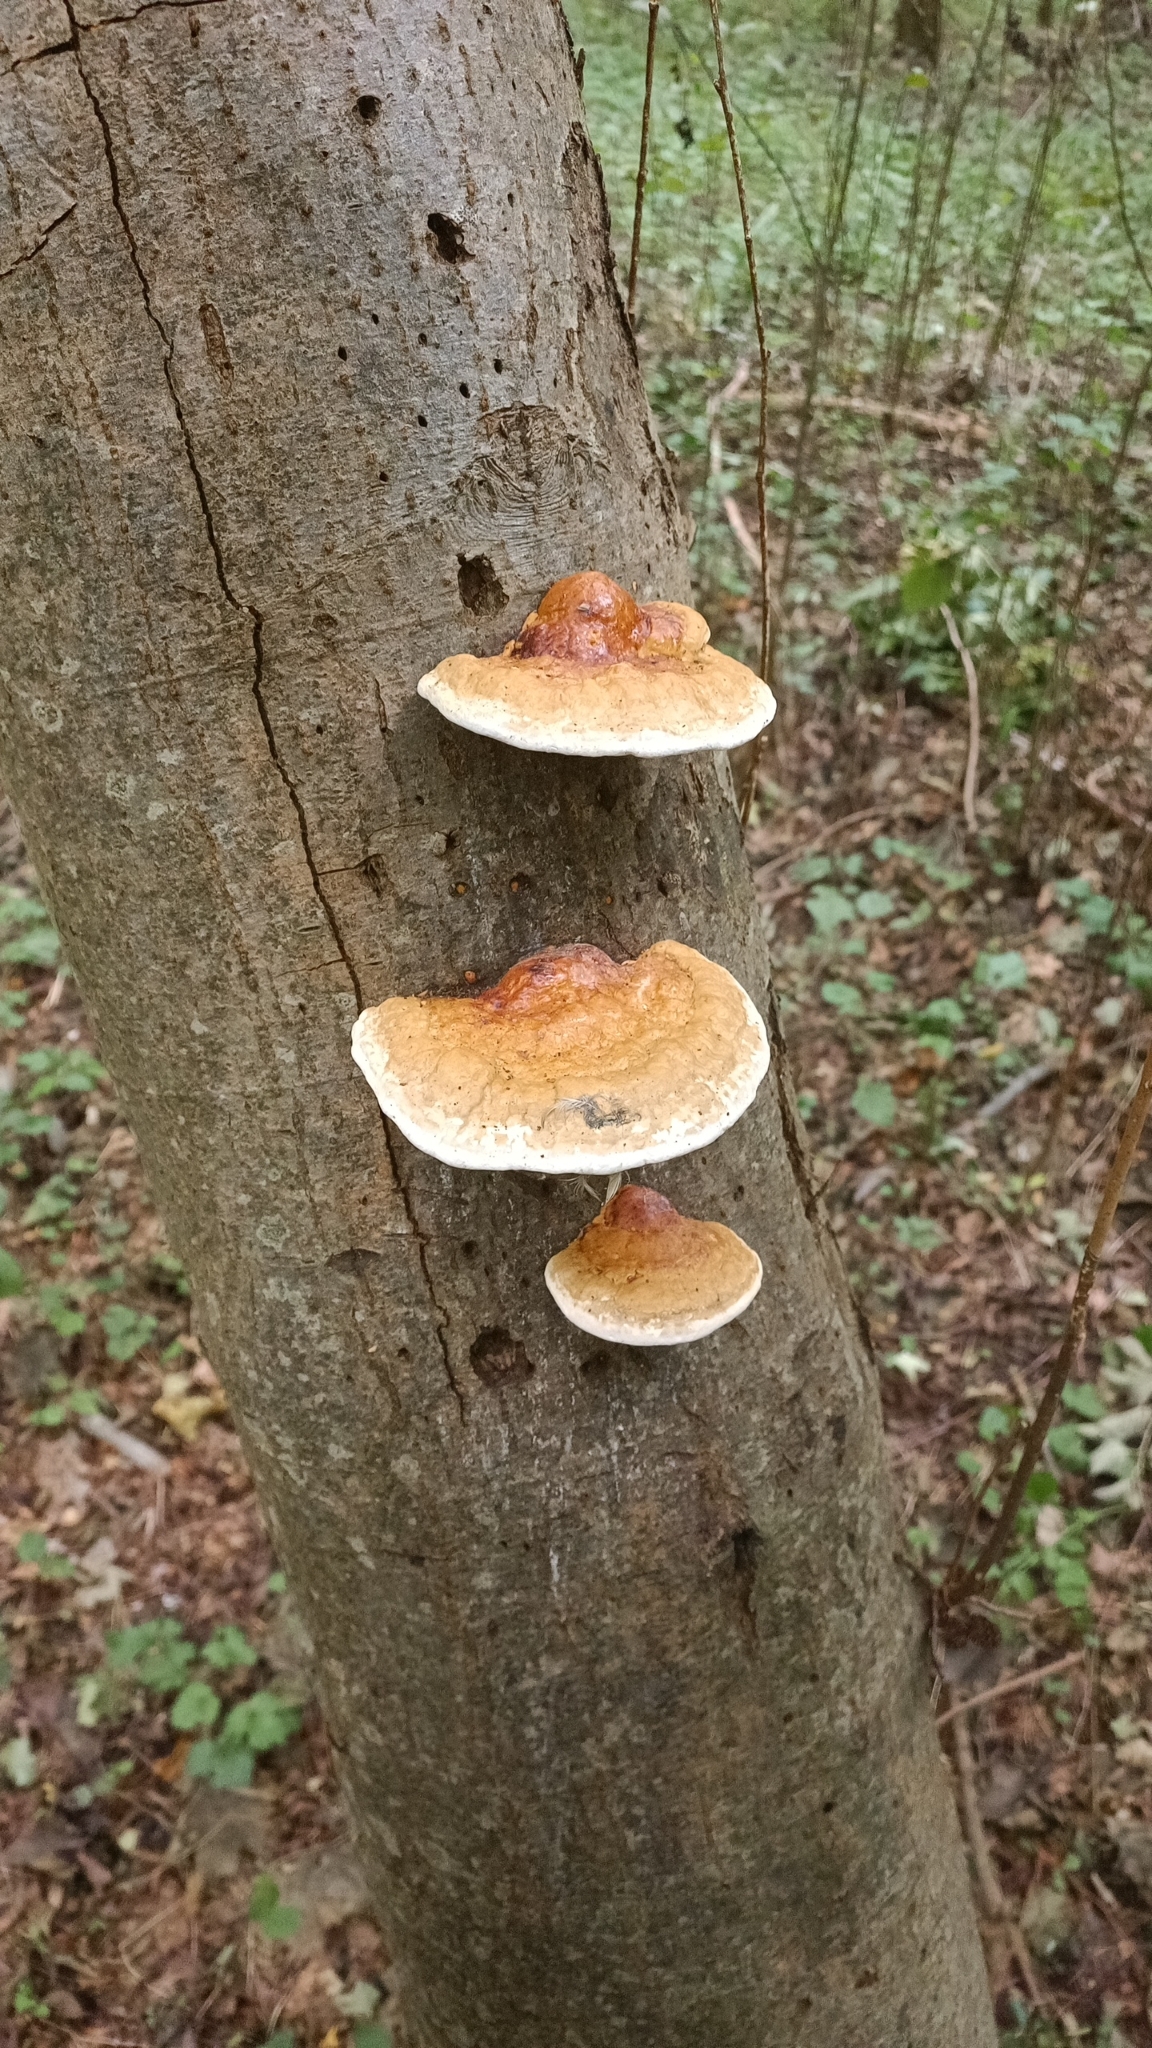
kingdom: Fungi
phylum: Basidiomycota
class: Agaricomycetes
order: Polyporales
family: Fomitopsidaceae
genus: Fomitopsis
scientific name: Fomitopsis pinicola
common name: Red-belted bracket
